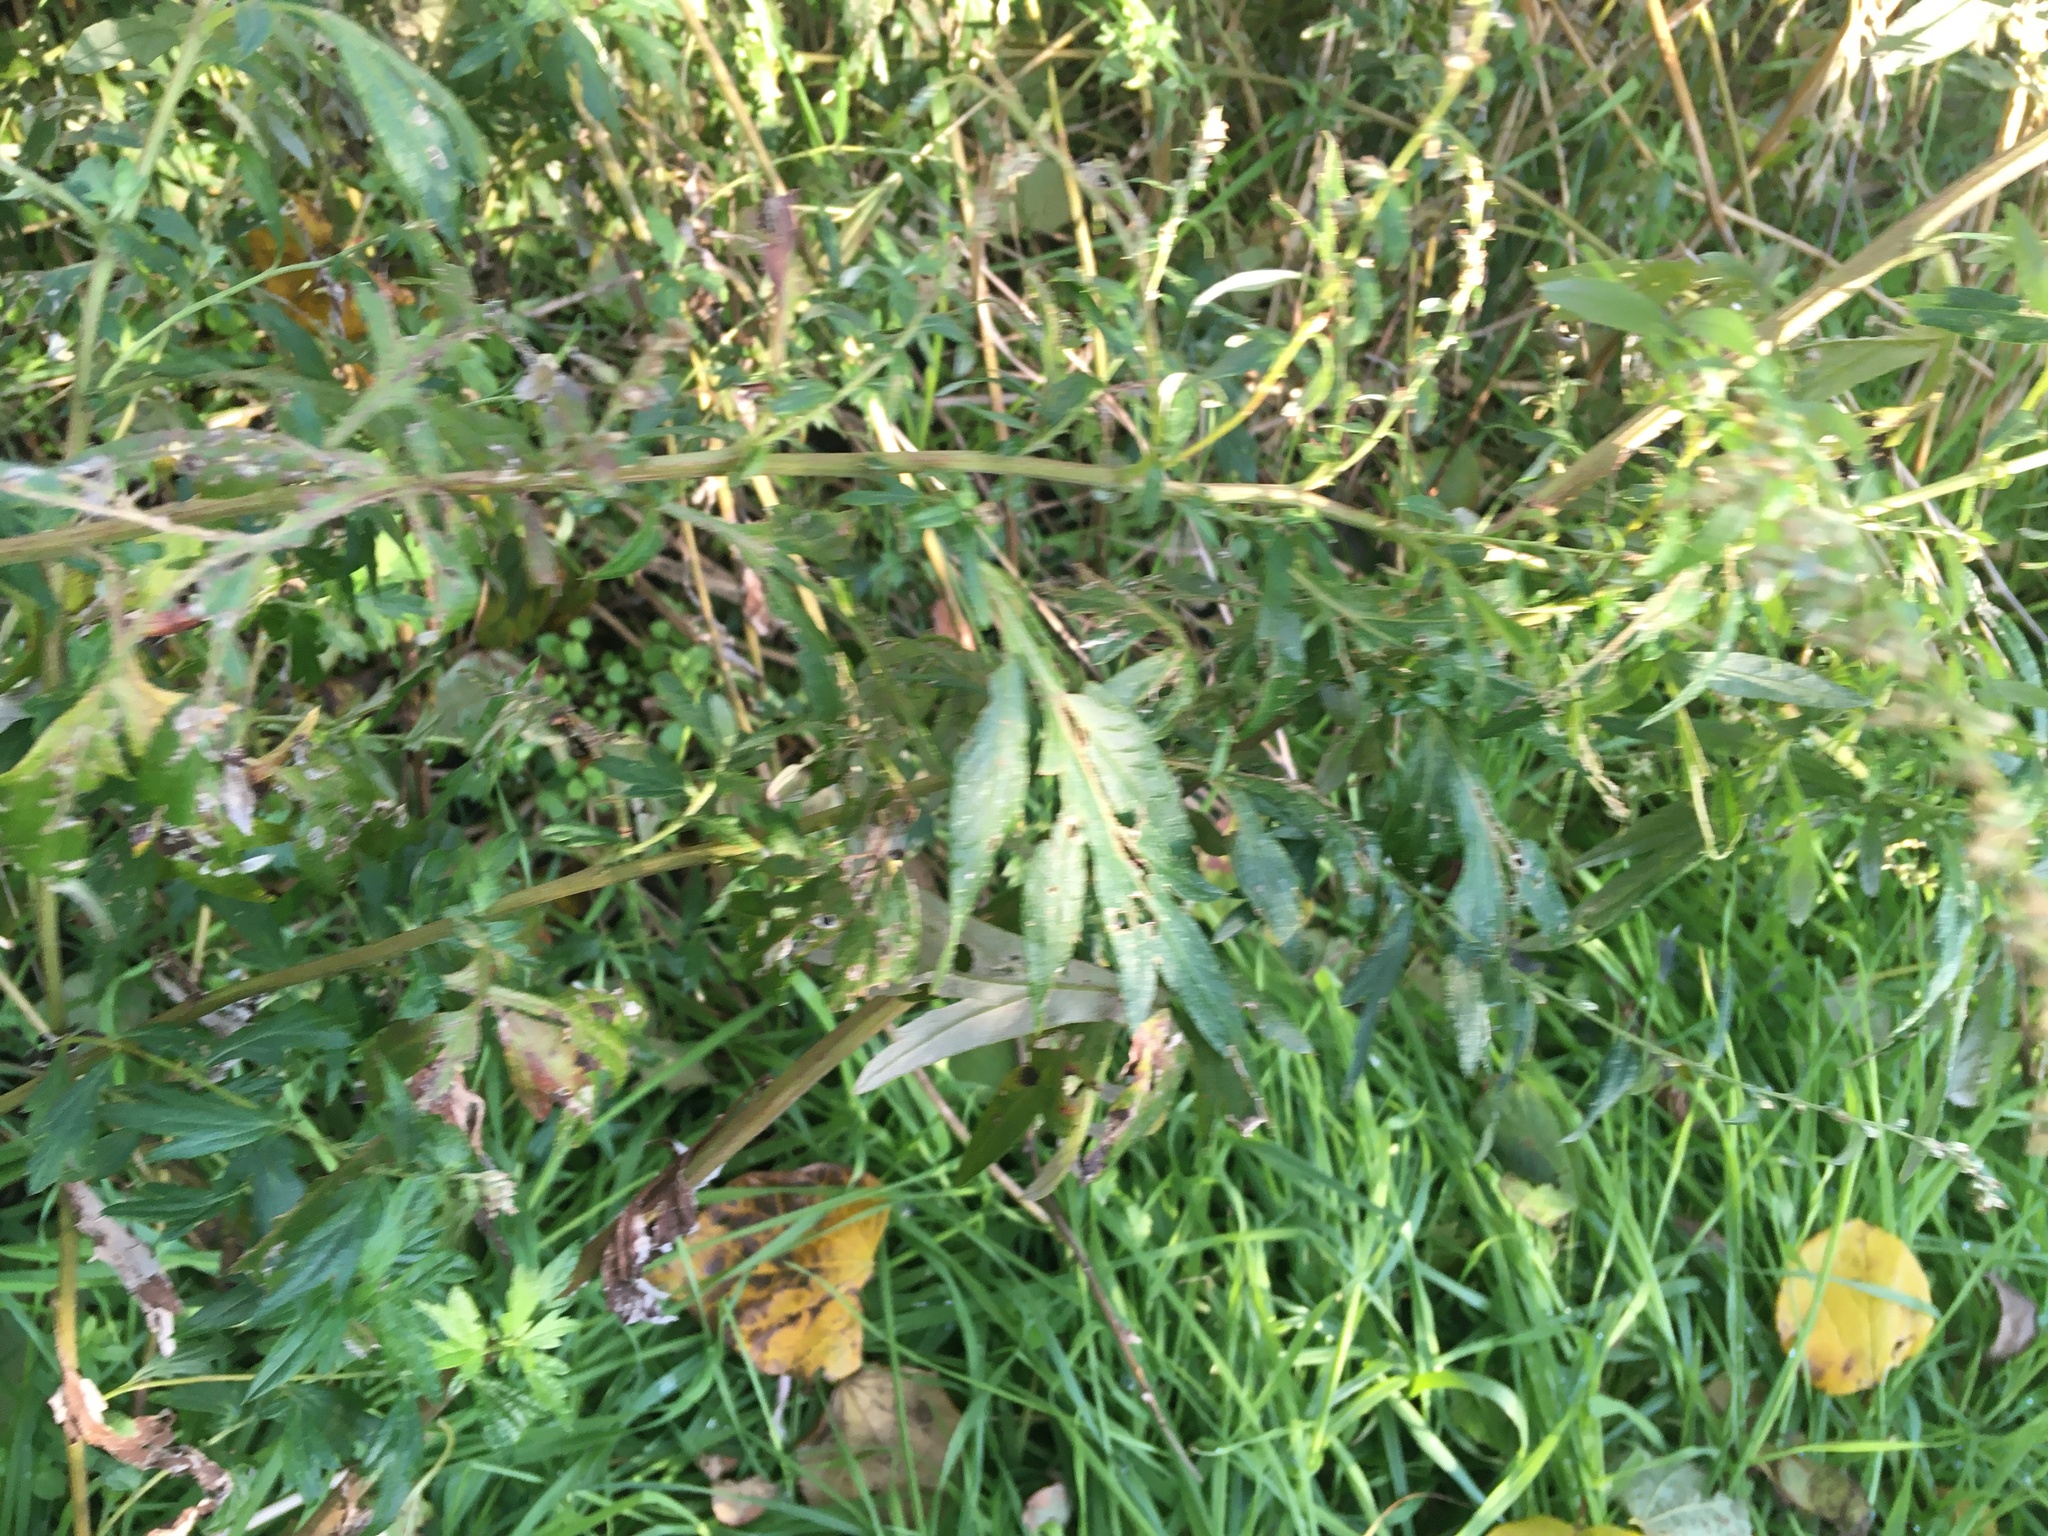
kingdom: Plantae
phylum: Tracheophyta
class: Magnoliopsida
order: Asterales
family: Asteraceae
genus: Artemisia
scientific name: Artemisia vulgaris
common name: Mugwort
